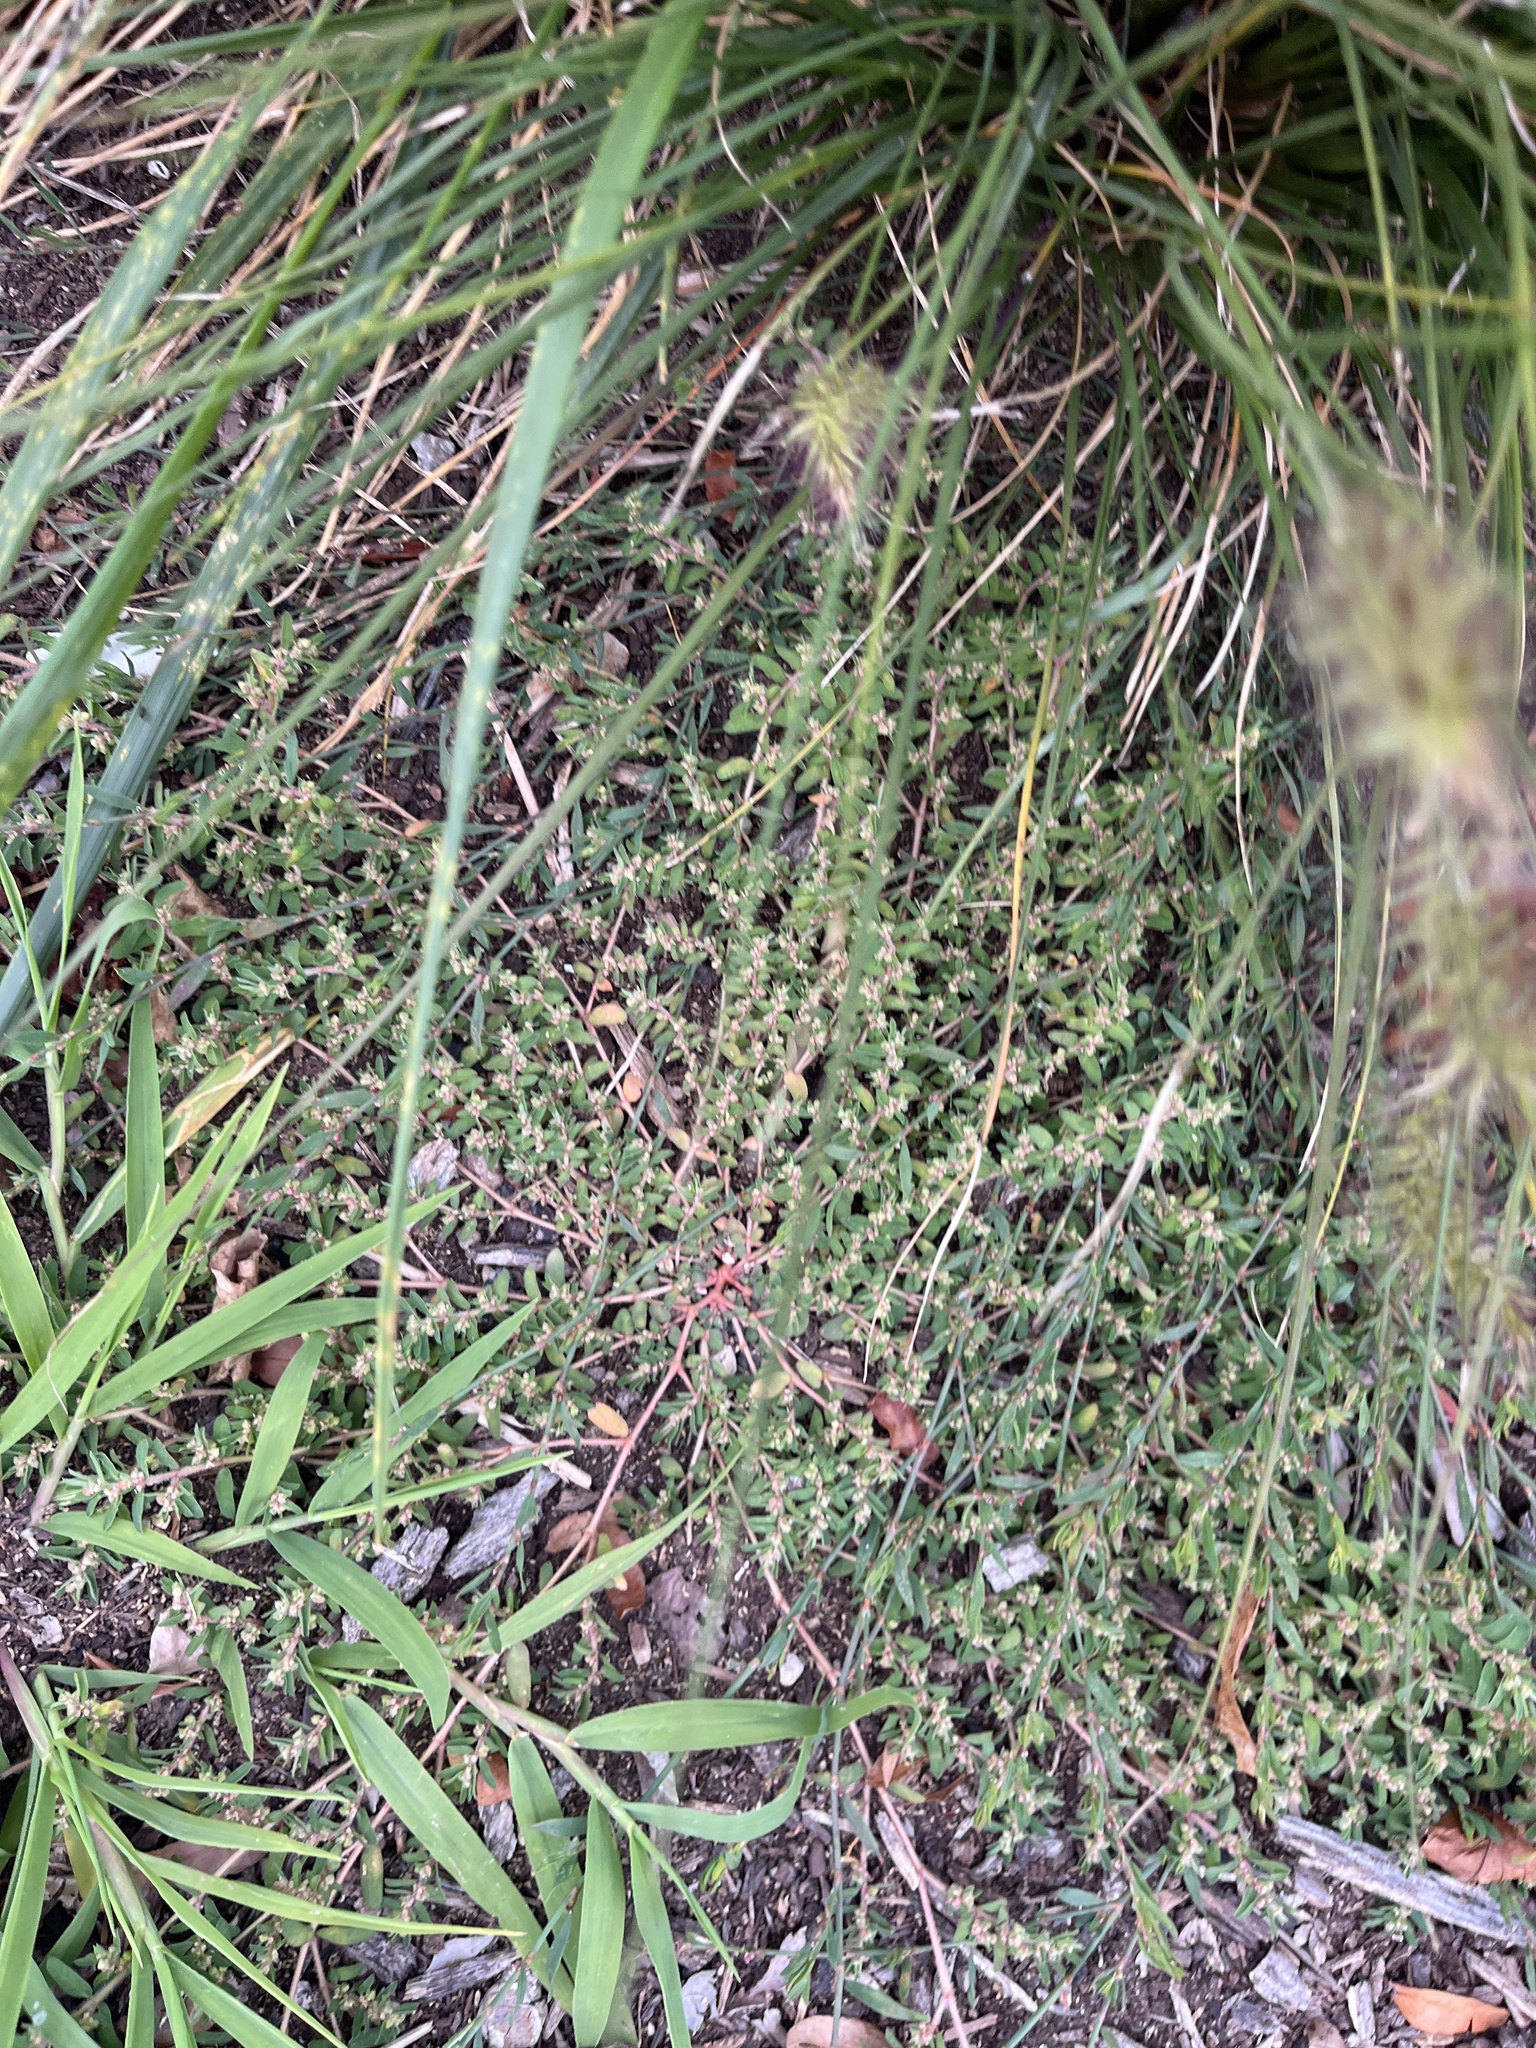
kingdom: Plantae
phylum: Tracheophyta
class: Magnoliopsida
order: Malpighiales
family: Euphorbiaceae
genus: Euphorbia
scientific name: Euphorbia maculata
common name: Spotted spurge
